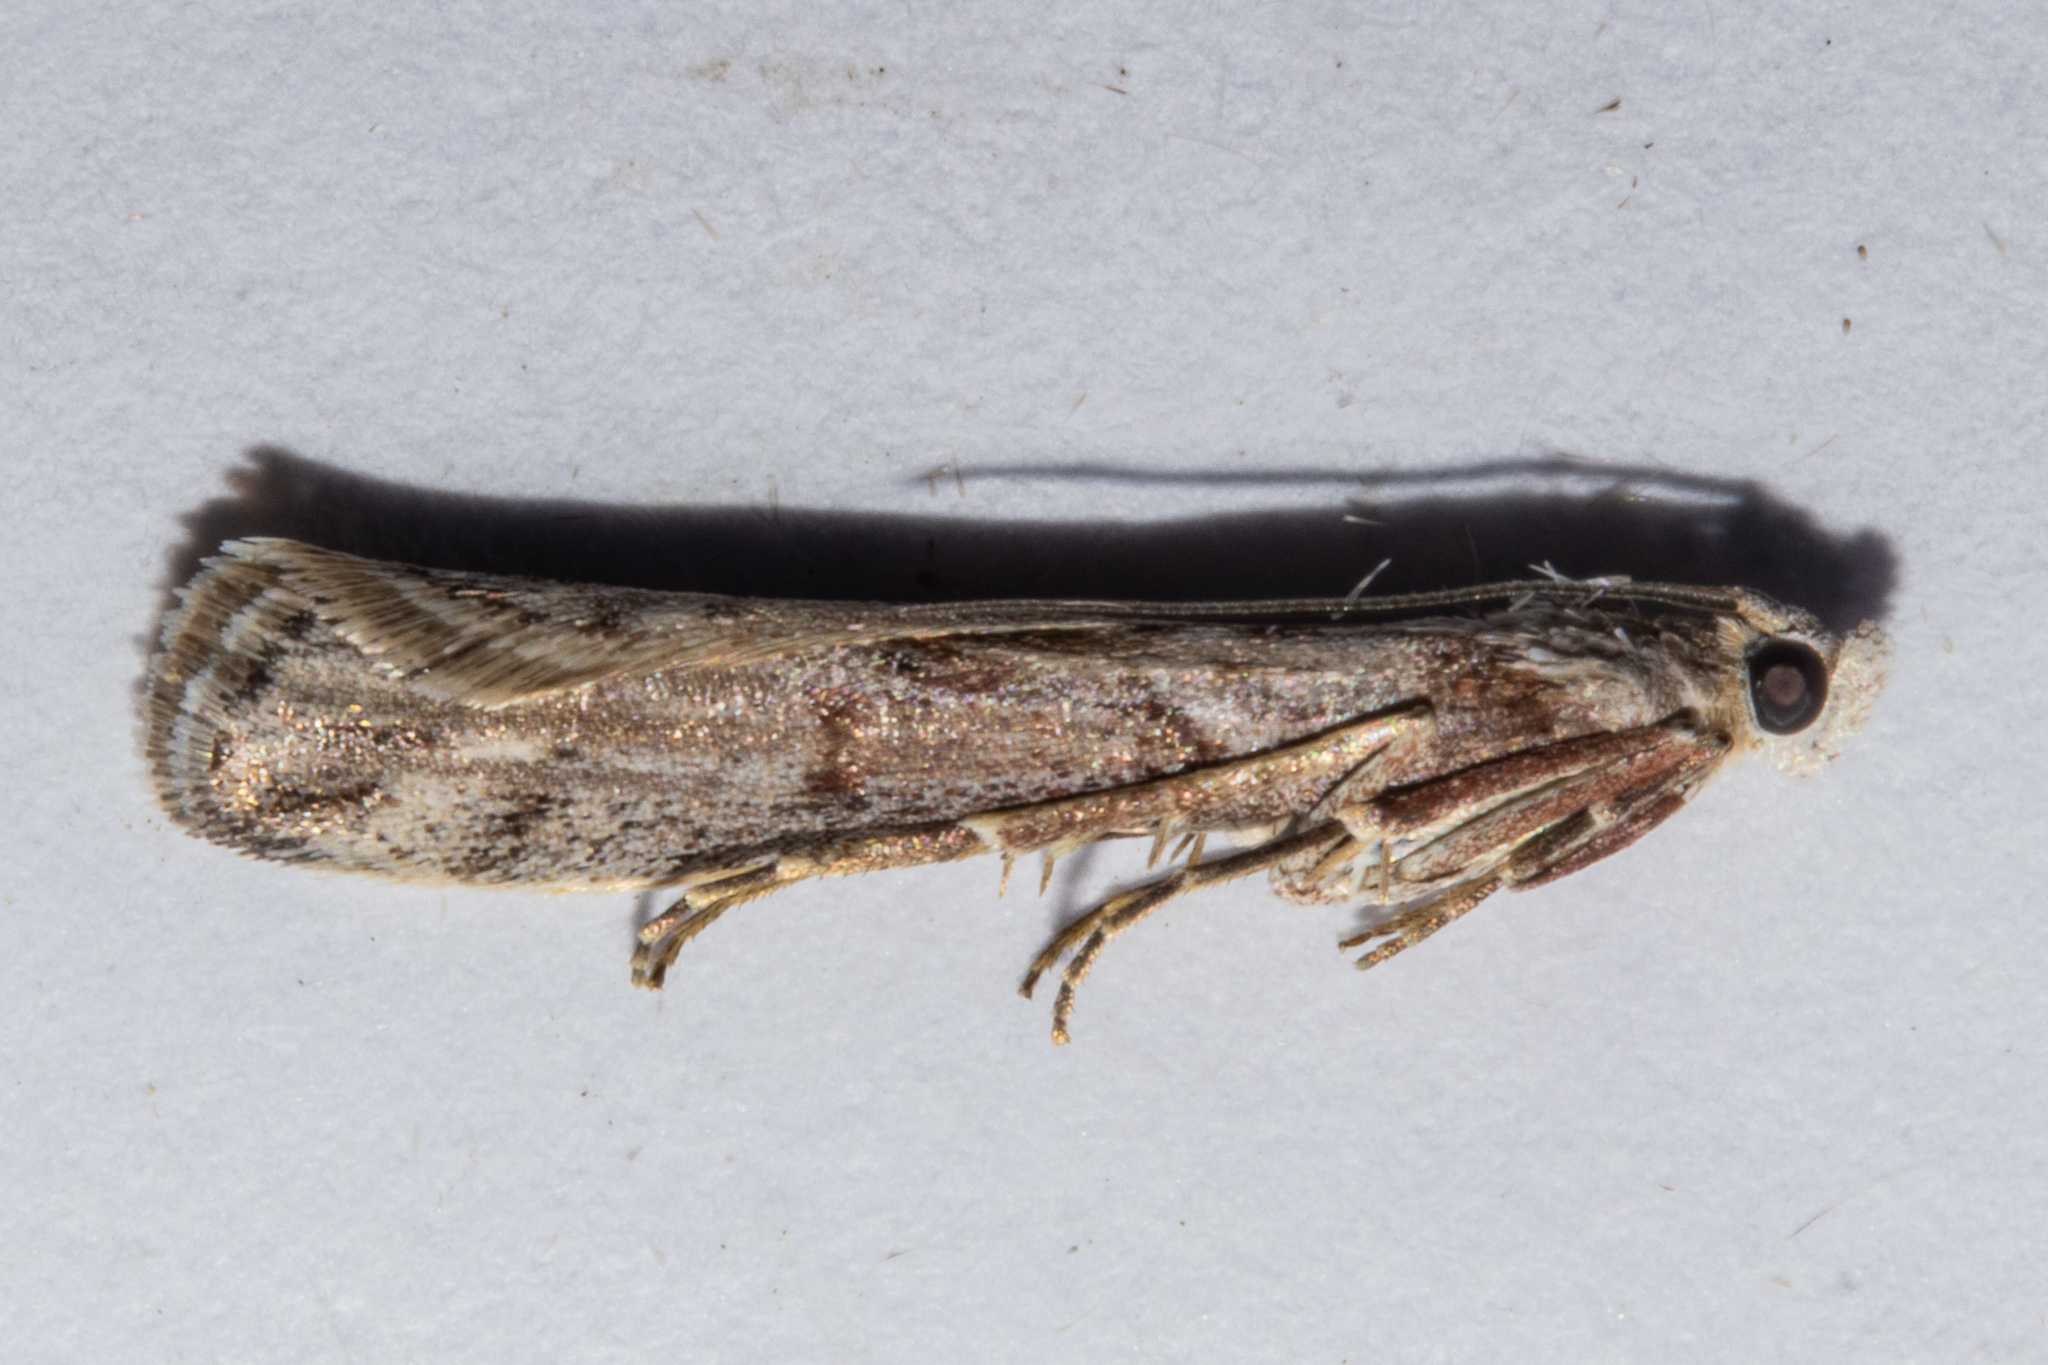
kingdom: Animalia
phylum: Arthropoda
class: Insecta
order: Lepidoptera
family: Pyralidae
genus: Patagoniodes
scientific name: Patagoniodes farinaria
